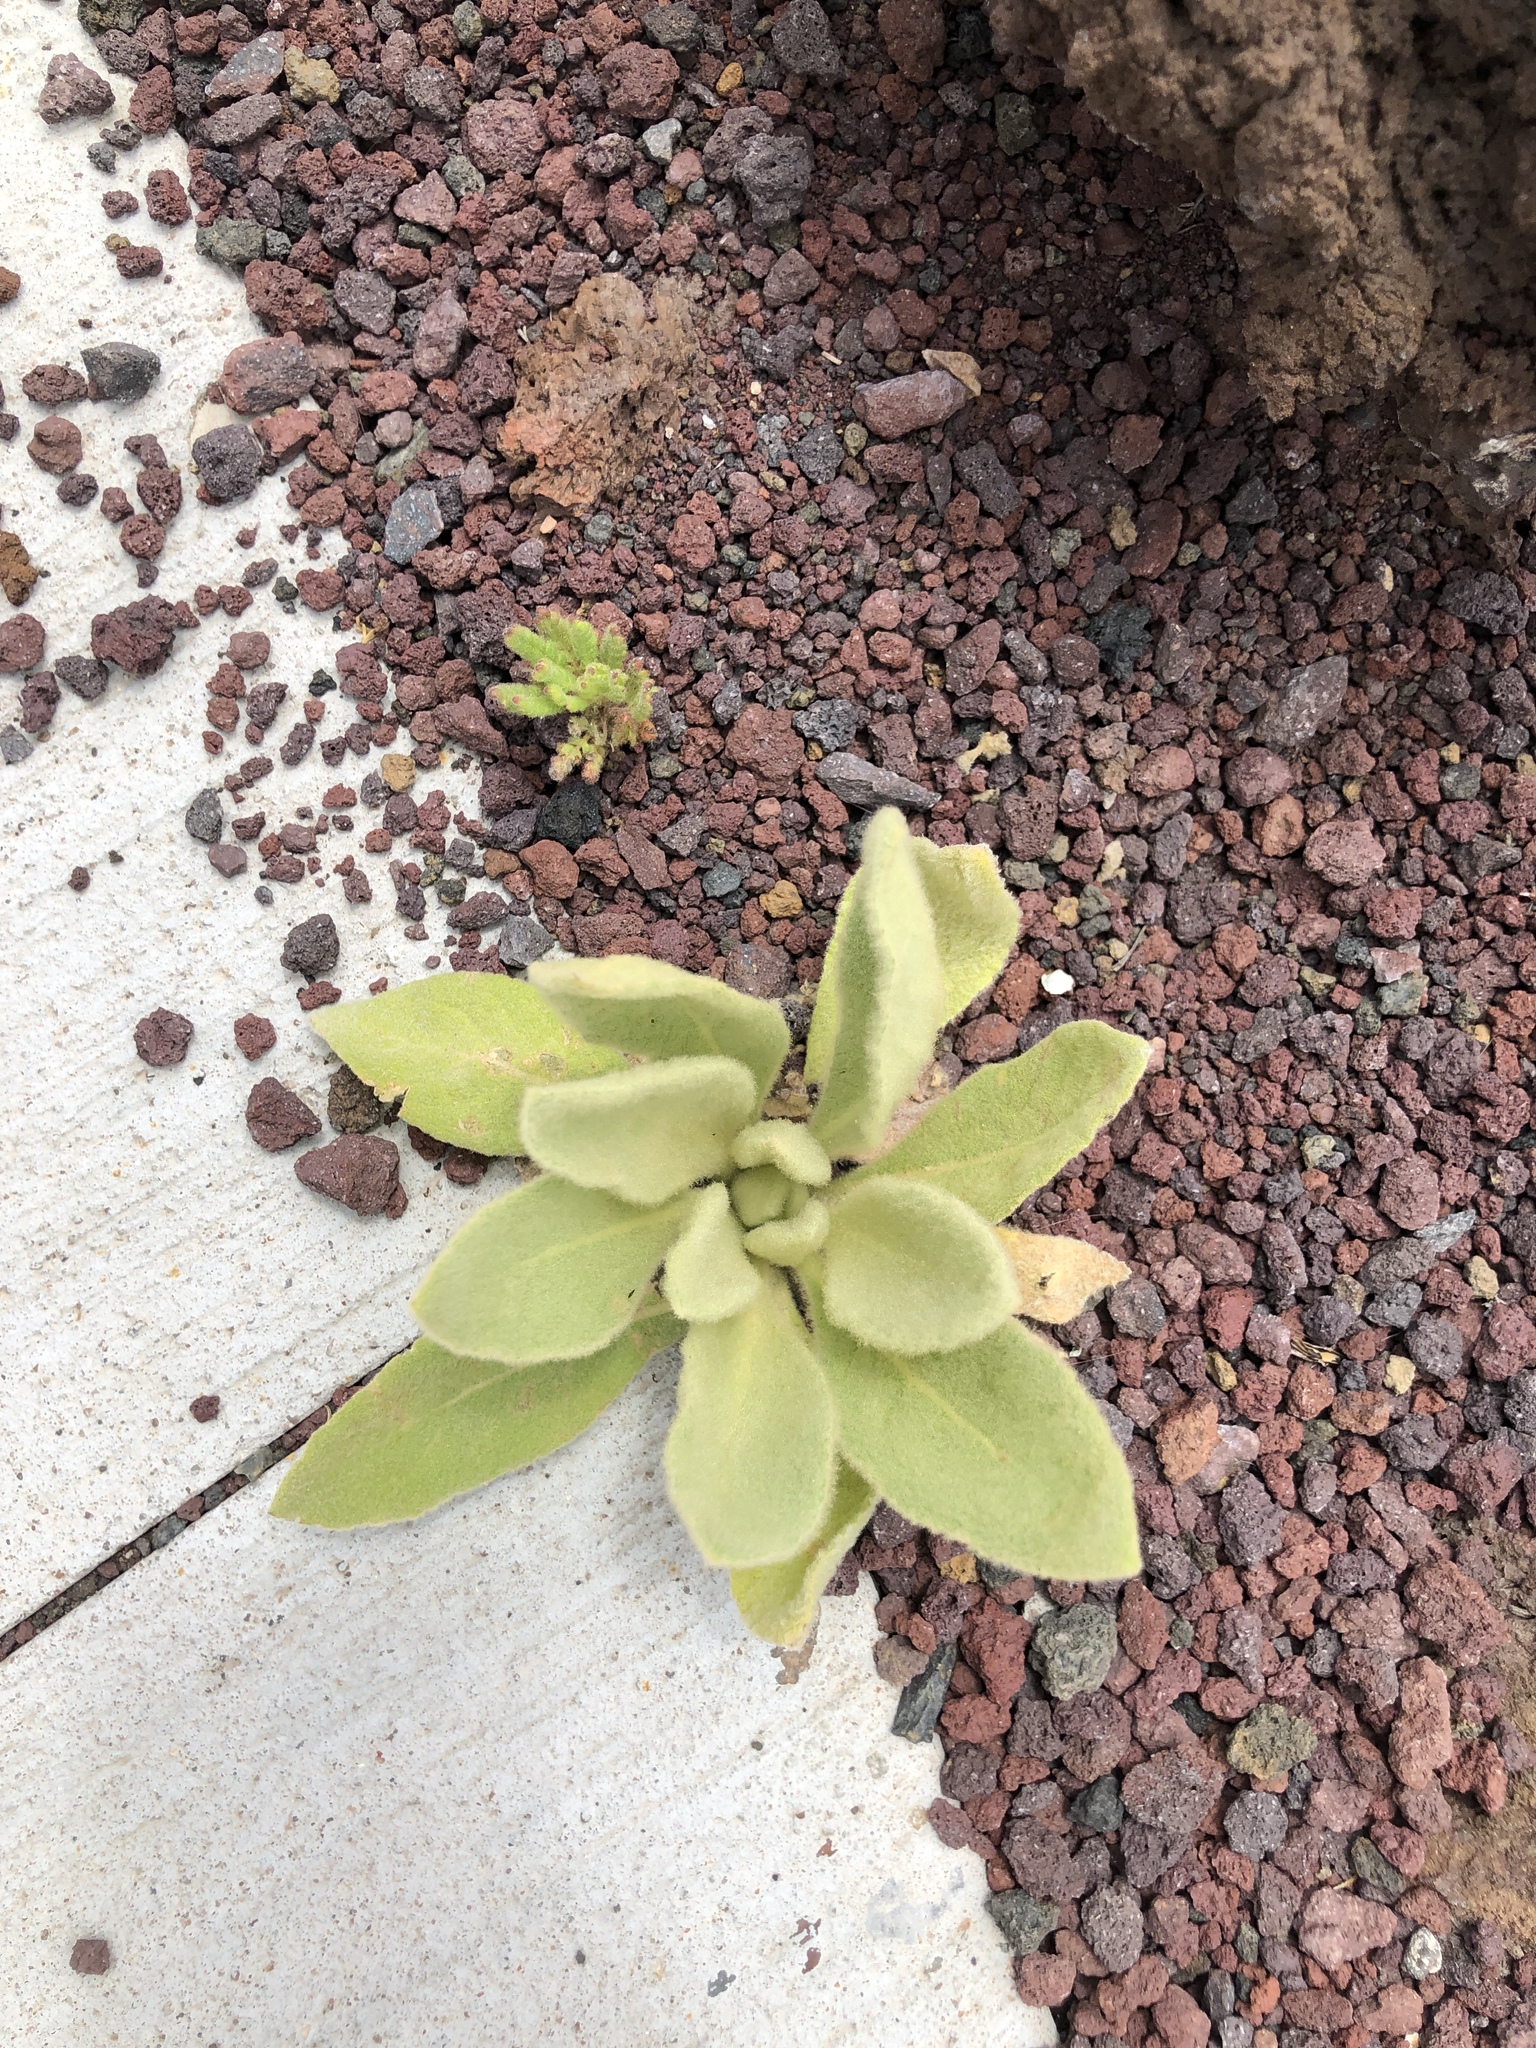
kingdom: Plantae
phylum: Tracheophyta
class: Magnoliopsida
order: Lamiales
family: Scrophulariaceae
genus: Verbascum
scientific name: Verbascum thapsus
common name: Common mullein
